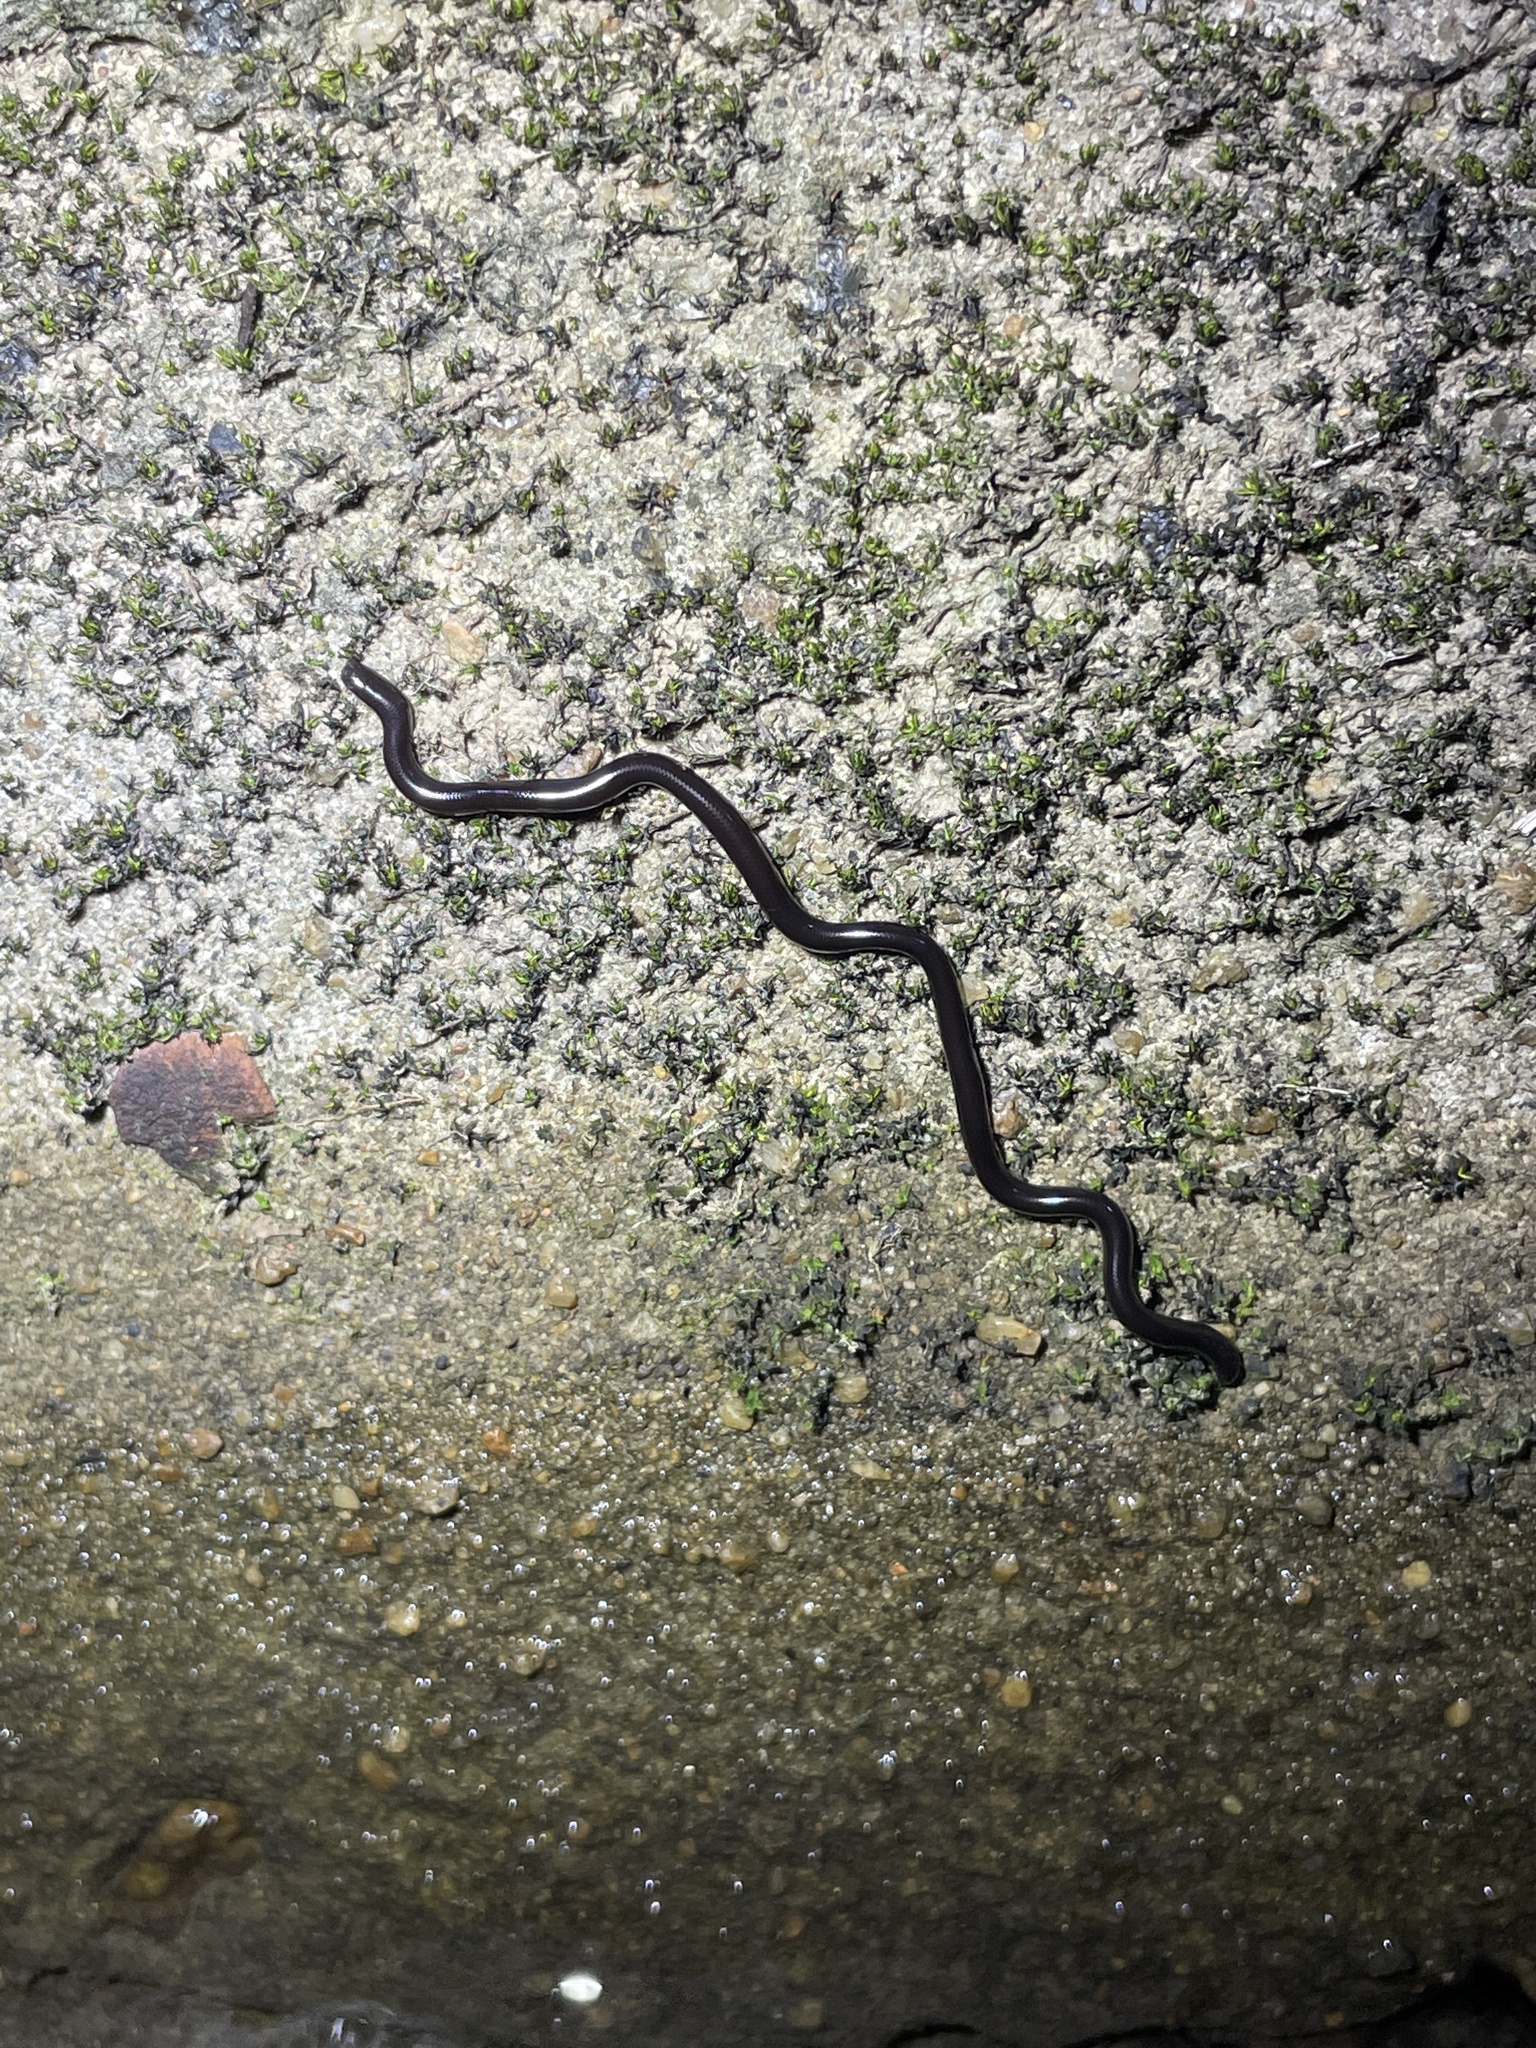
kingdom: Animalia
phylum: Chordata
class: Squamata
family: Typhlopidae
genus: Indotyphlops
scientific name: Indotyphlops braminus
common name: Brahminy blindsnake
